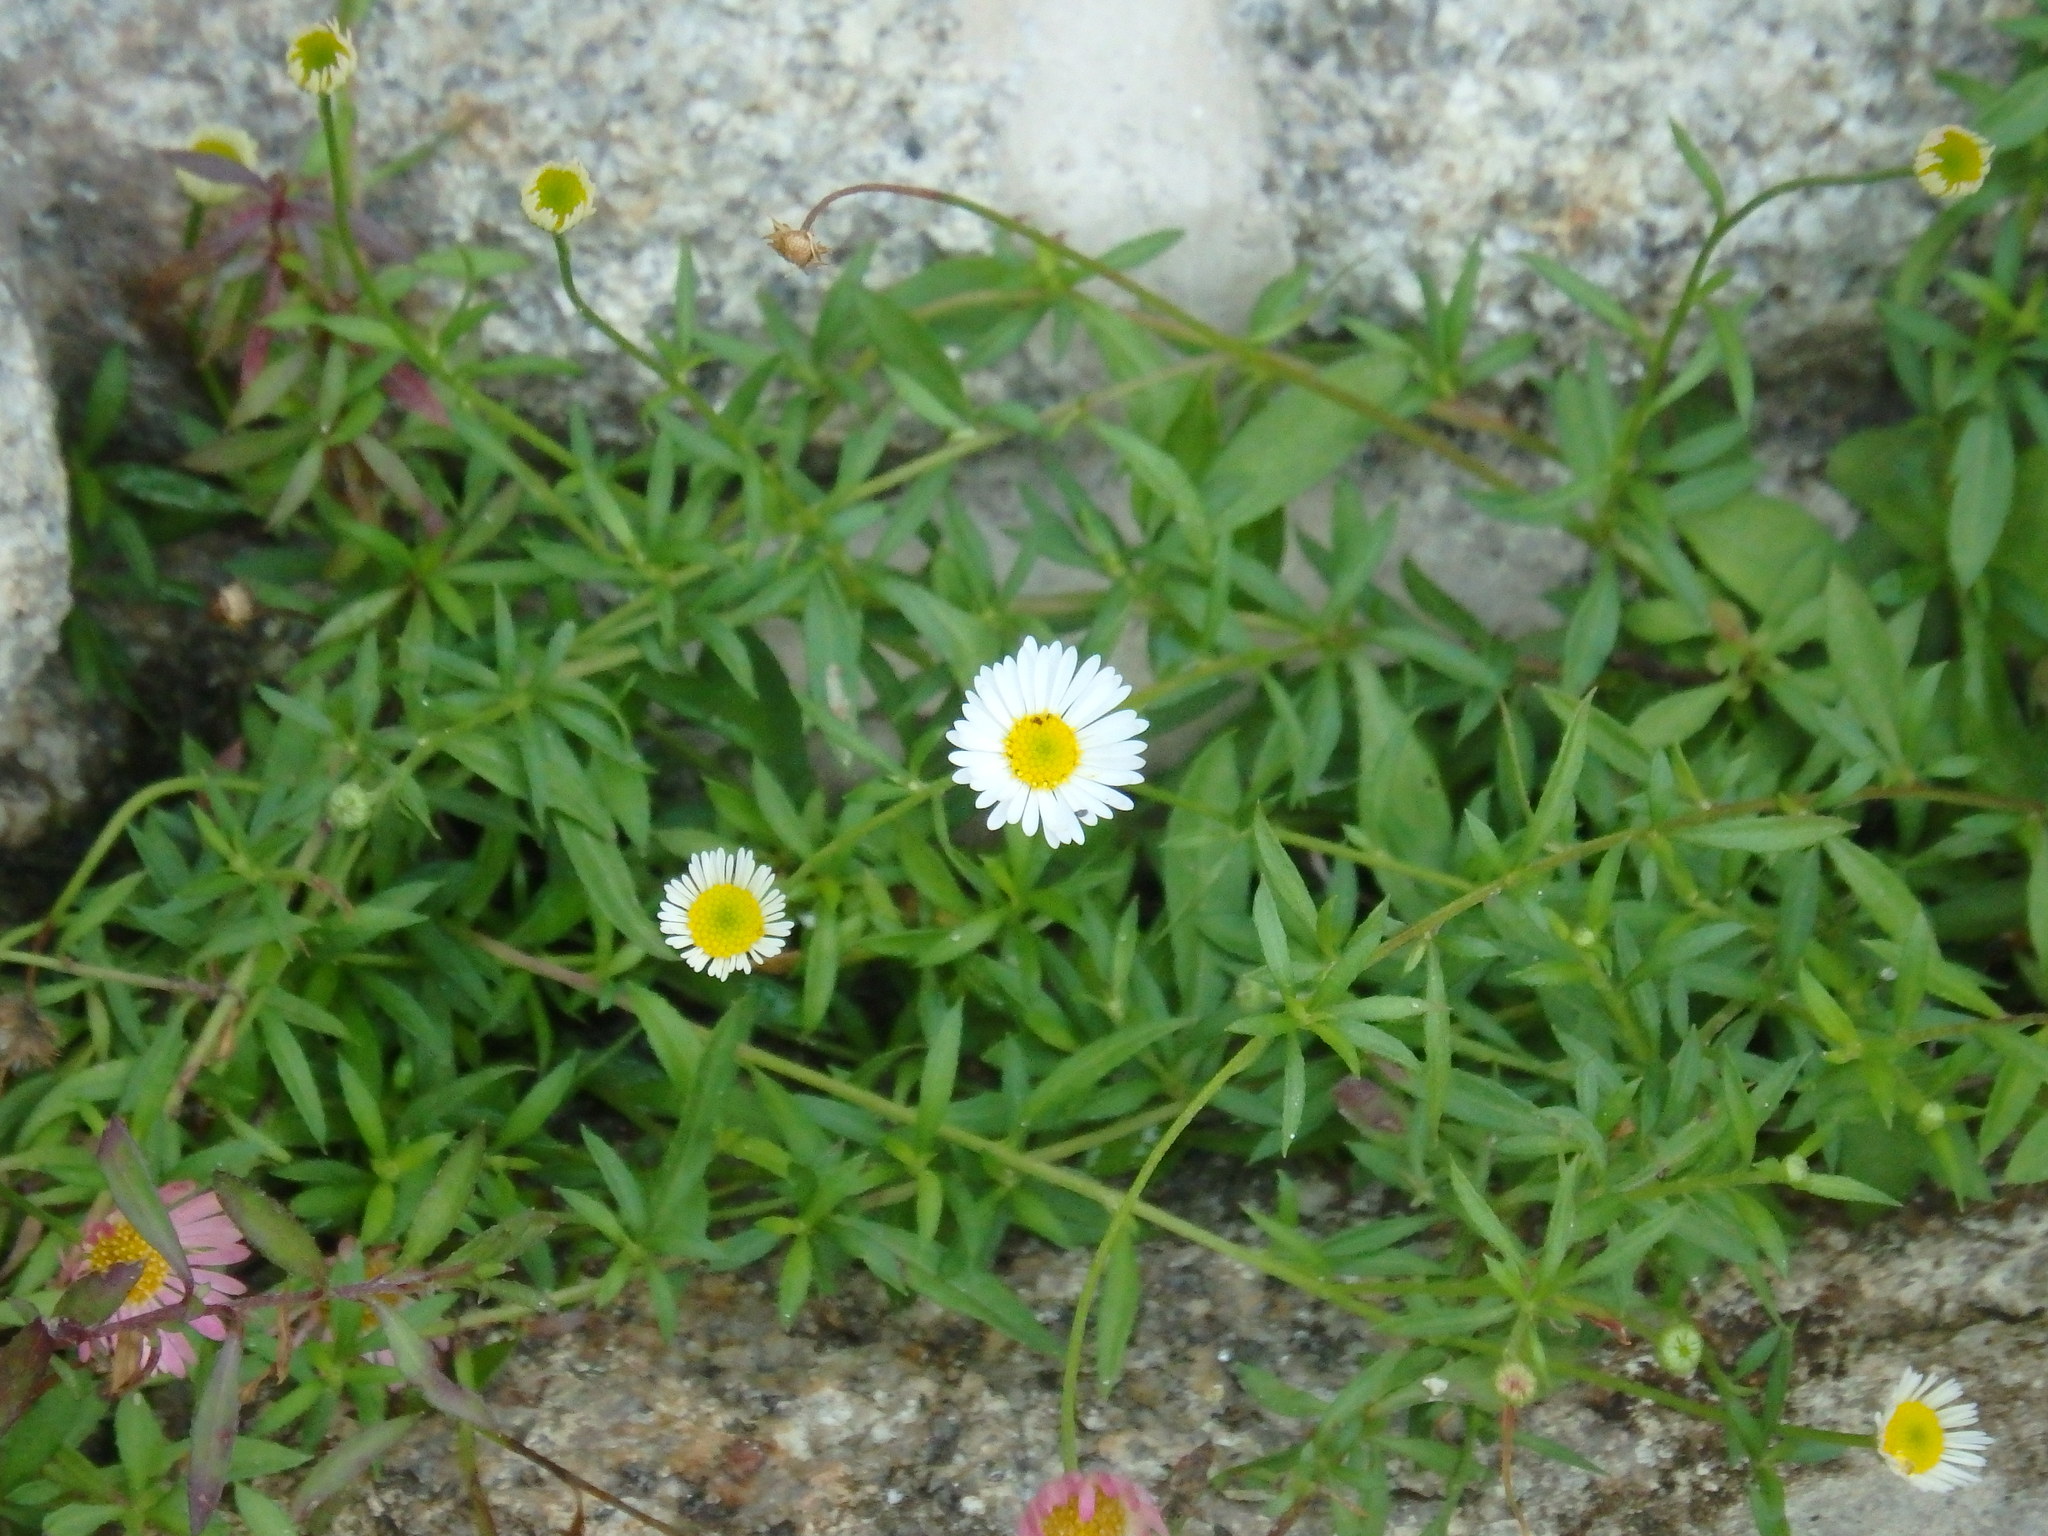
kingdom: Plantae
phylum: Tracheophyta
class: Magnoliopsida
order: Asterales
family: Asteraceae
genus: Erigeron
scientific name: Erigeron karvinskianus
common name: Mexican fleabane
